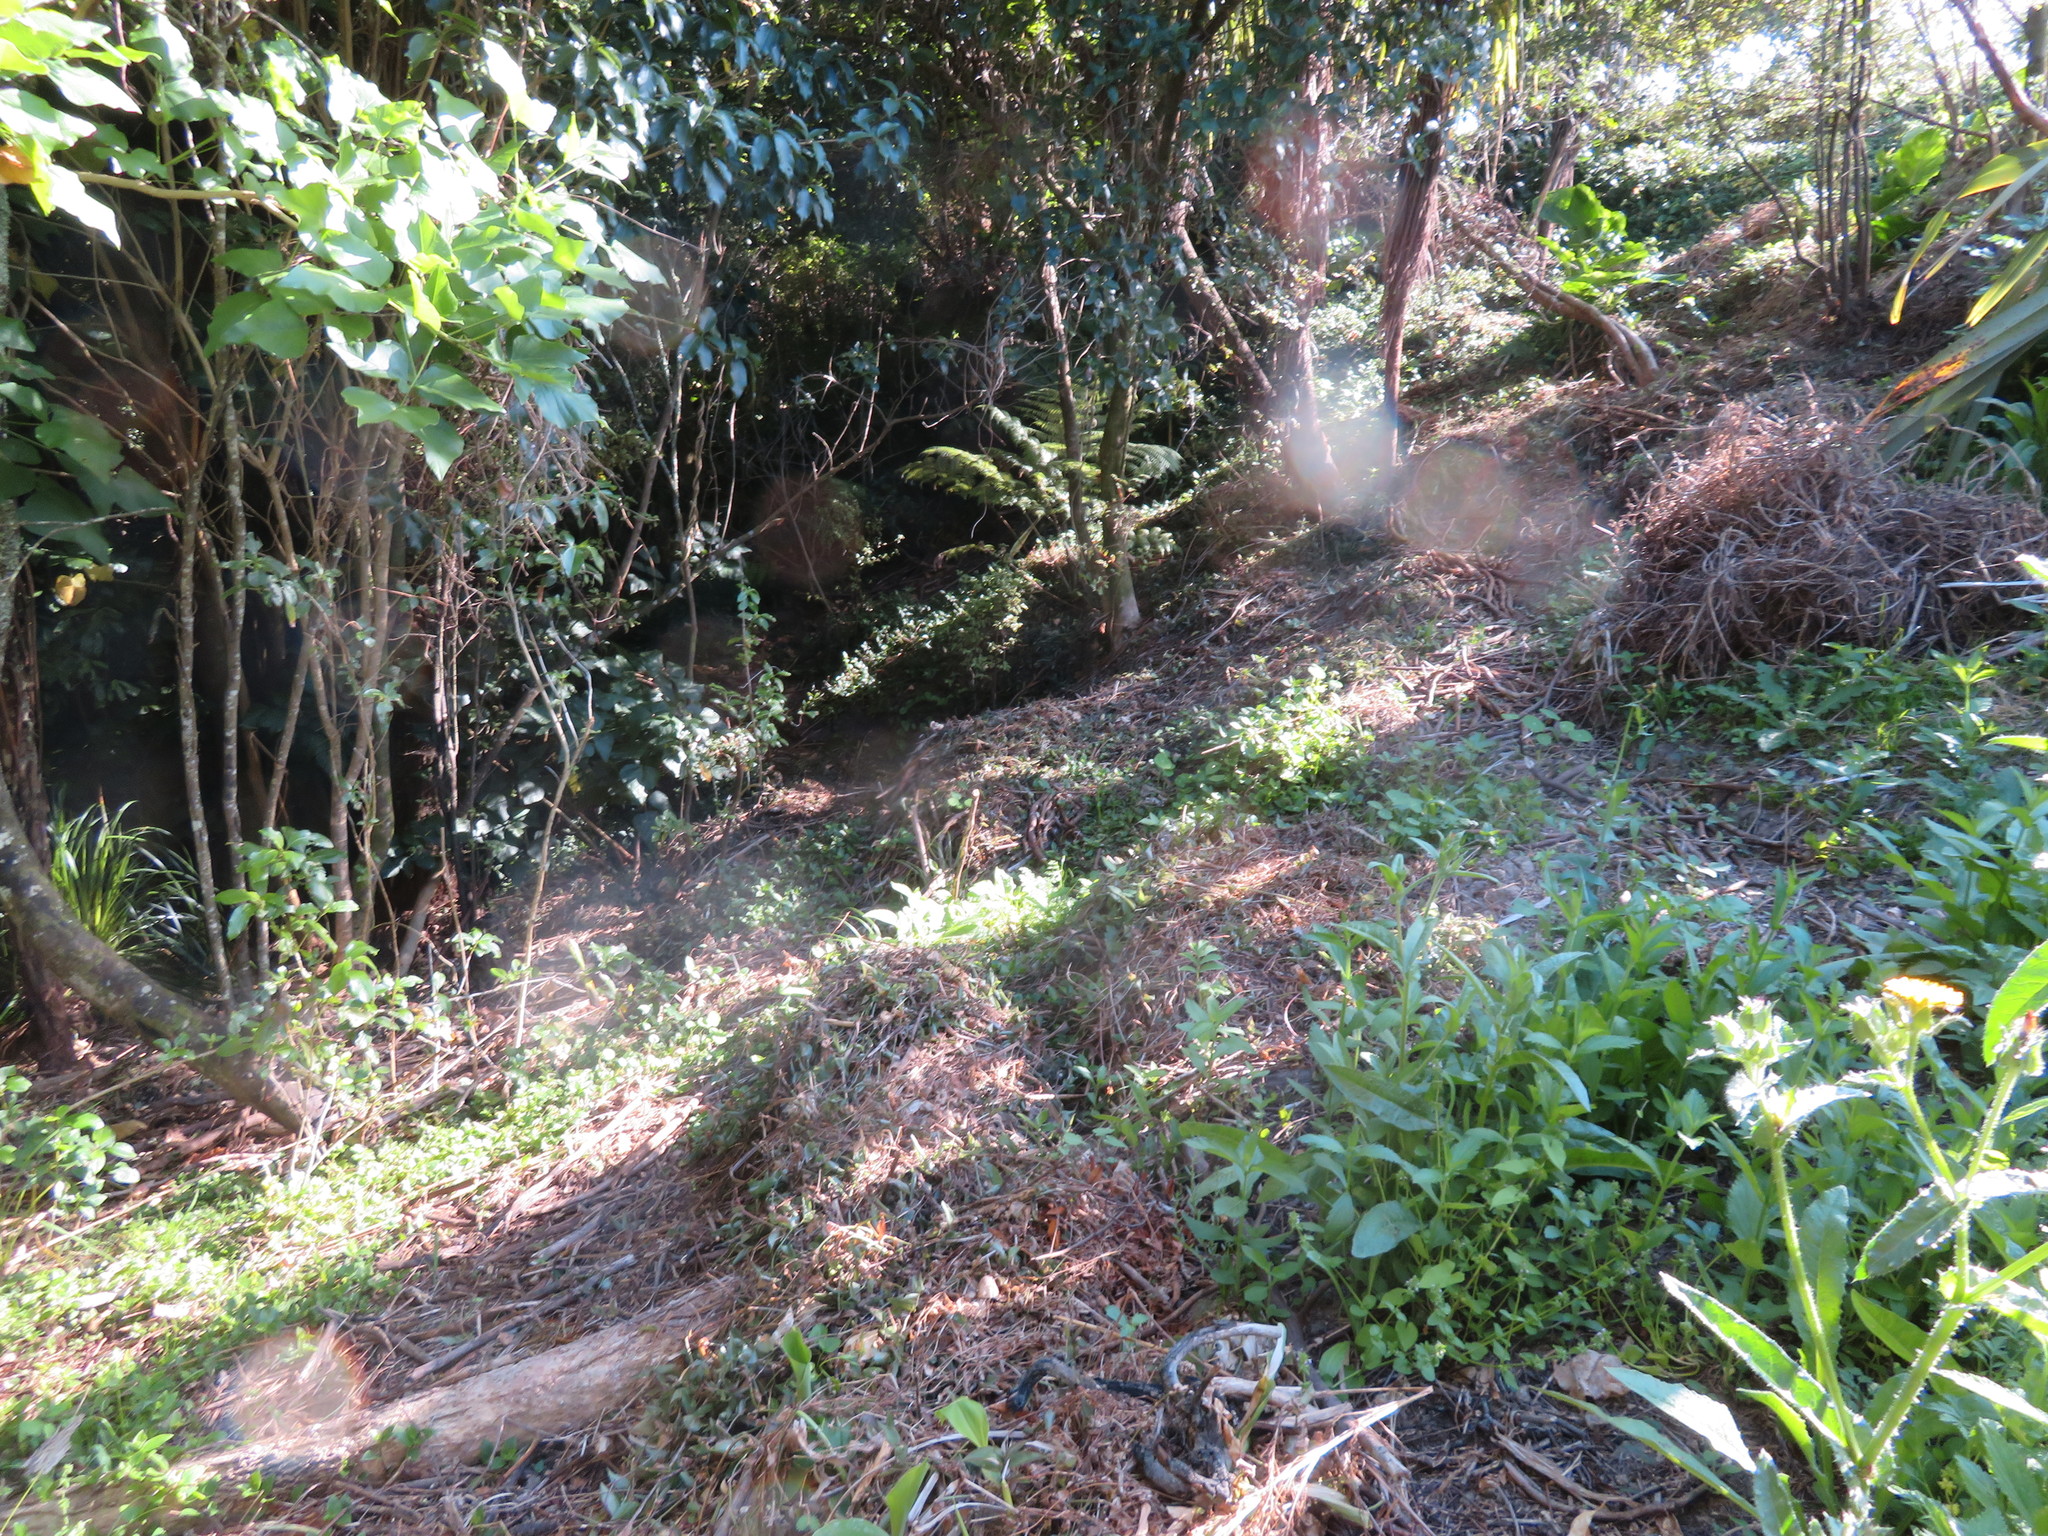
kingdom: Plantae
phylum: Tracheophyta
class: Liliopsida
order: Commelinales
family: Commelinaceae
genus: Tradescantia
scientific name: Tradescantia fluminensis
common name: Wandering-jew
